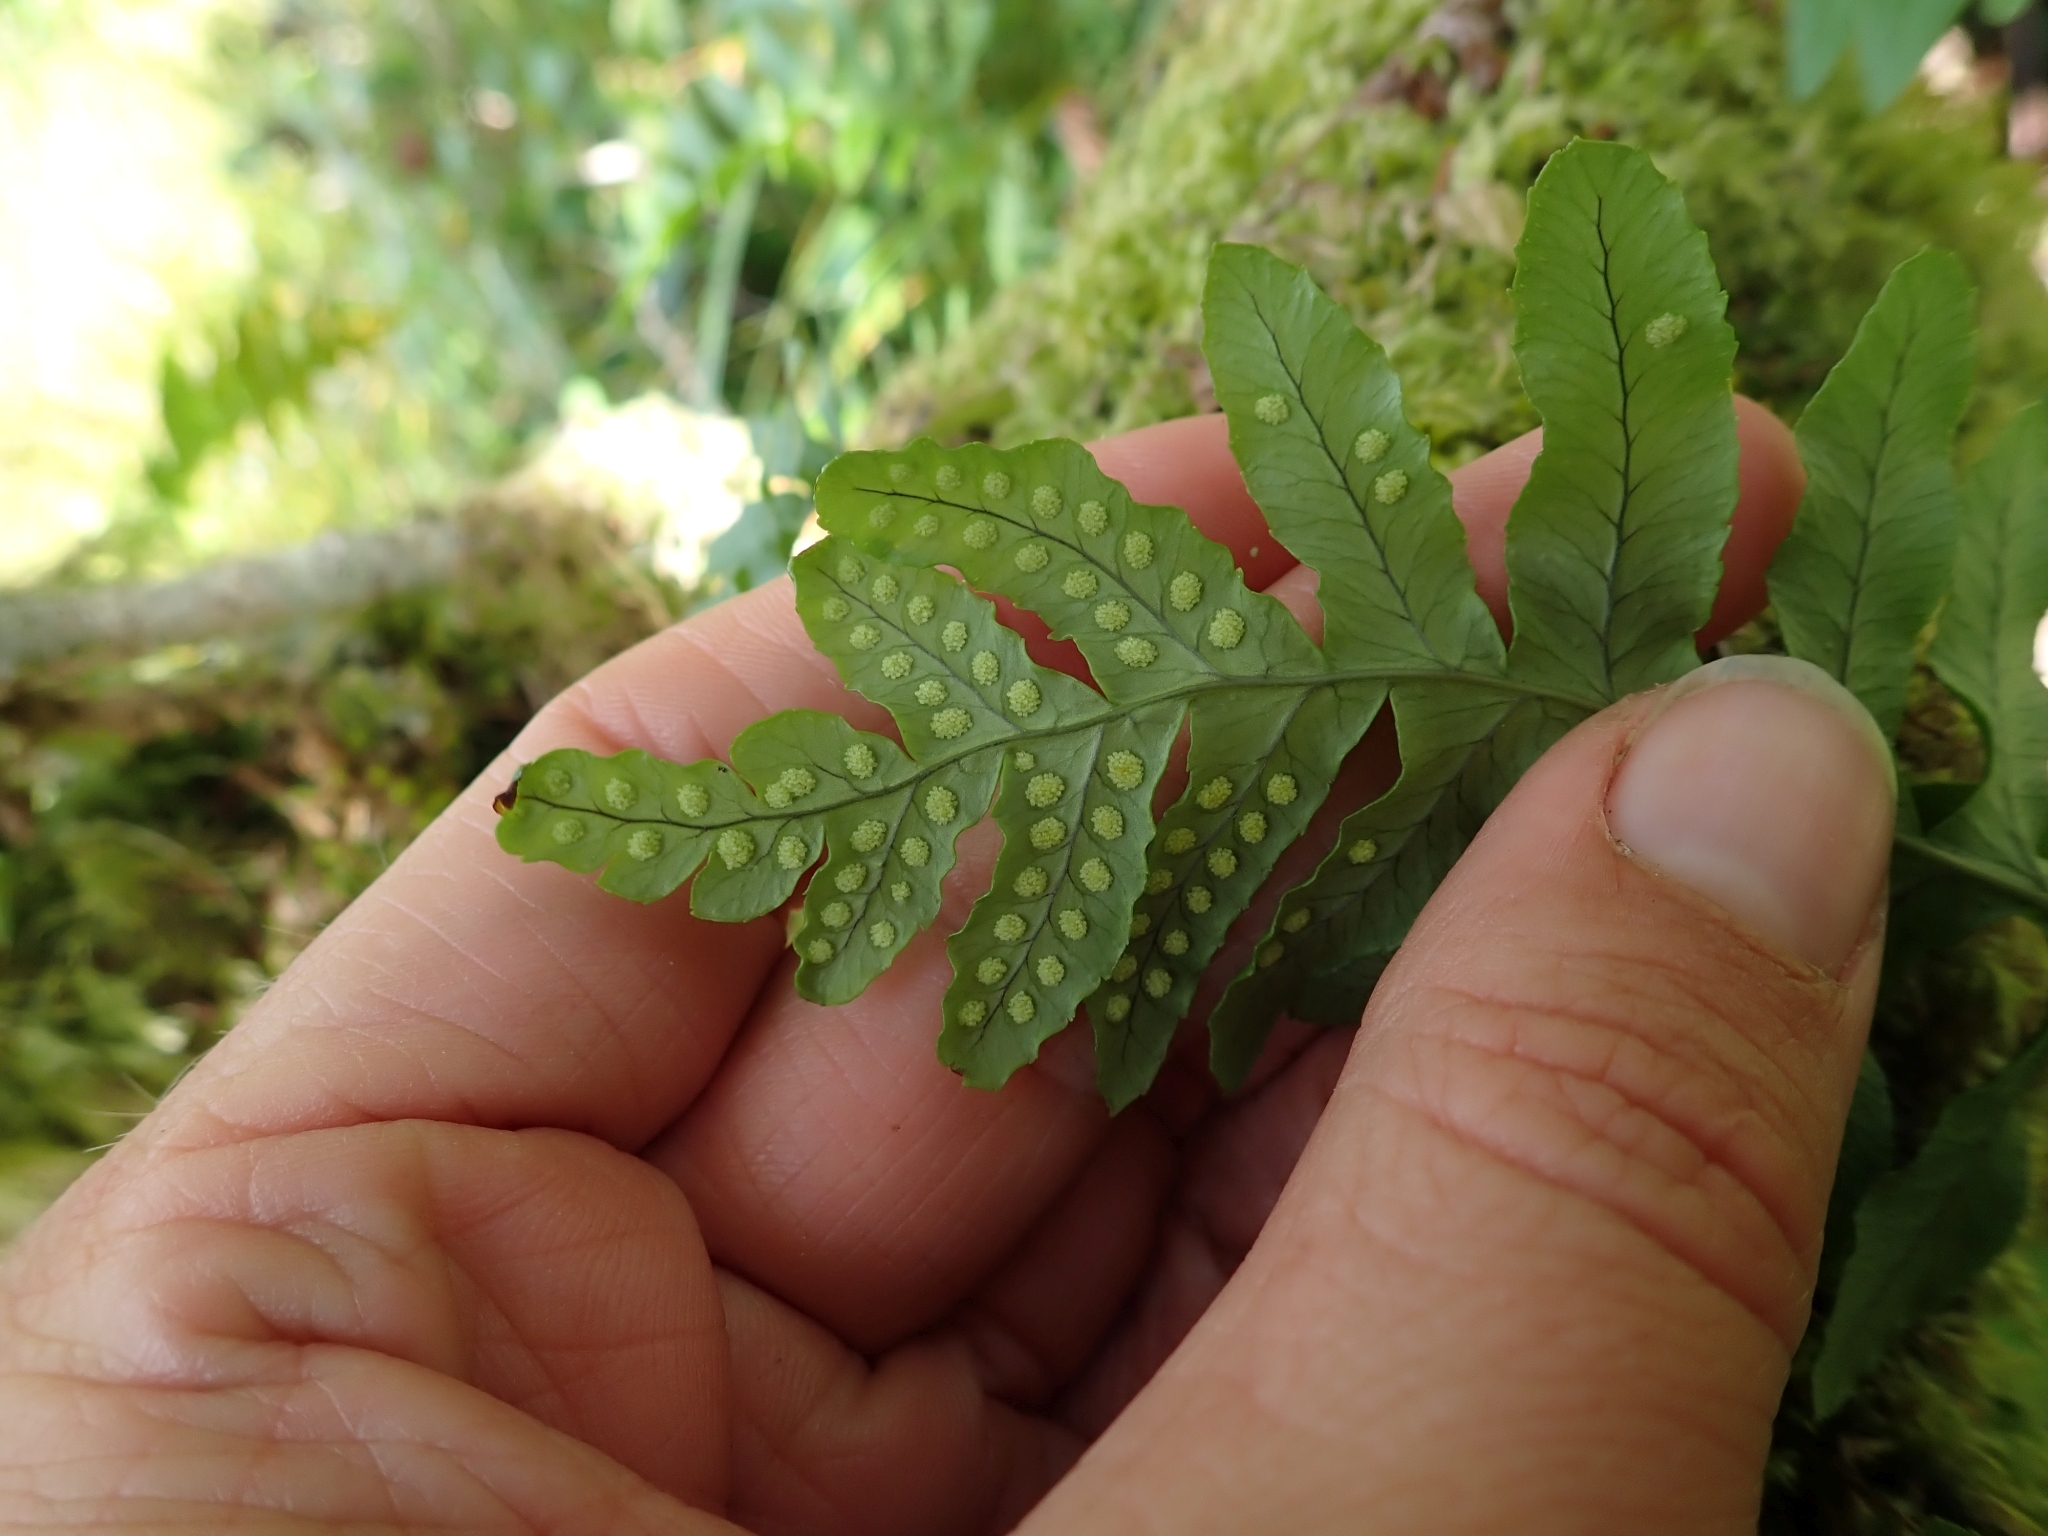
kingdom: Plantae
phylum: Tracheophyta
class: Polypodiopsida
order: Polypodiales
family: Polypodiaceae
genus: Polypodium
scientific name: Polypodium glycyrrhiza
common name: Licorice fern
